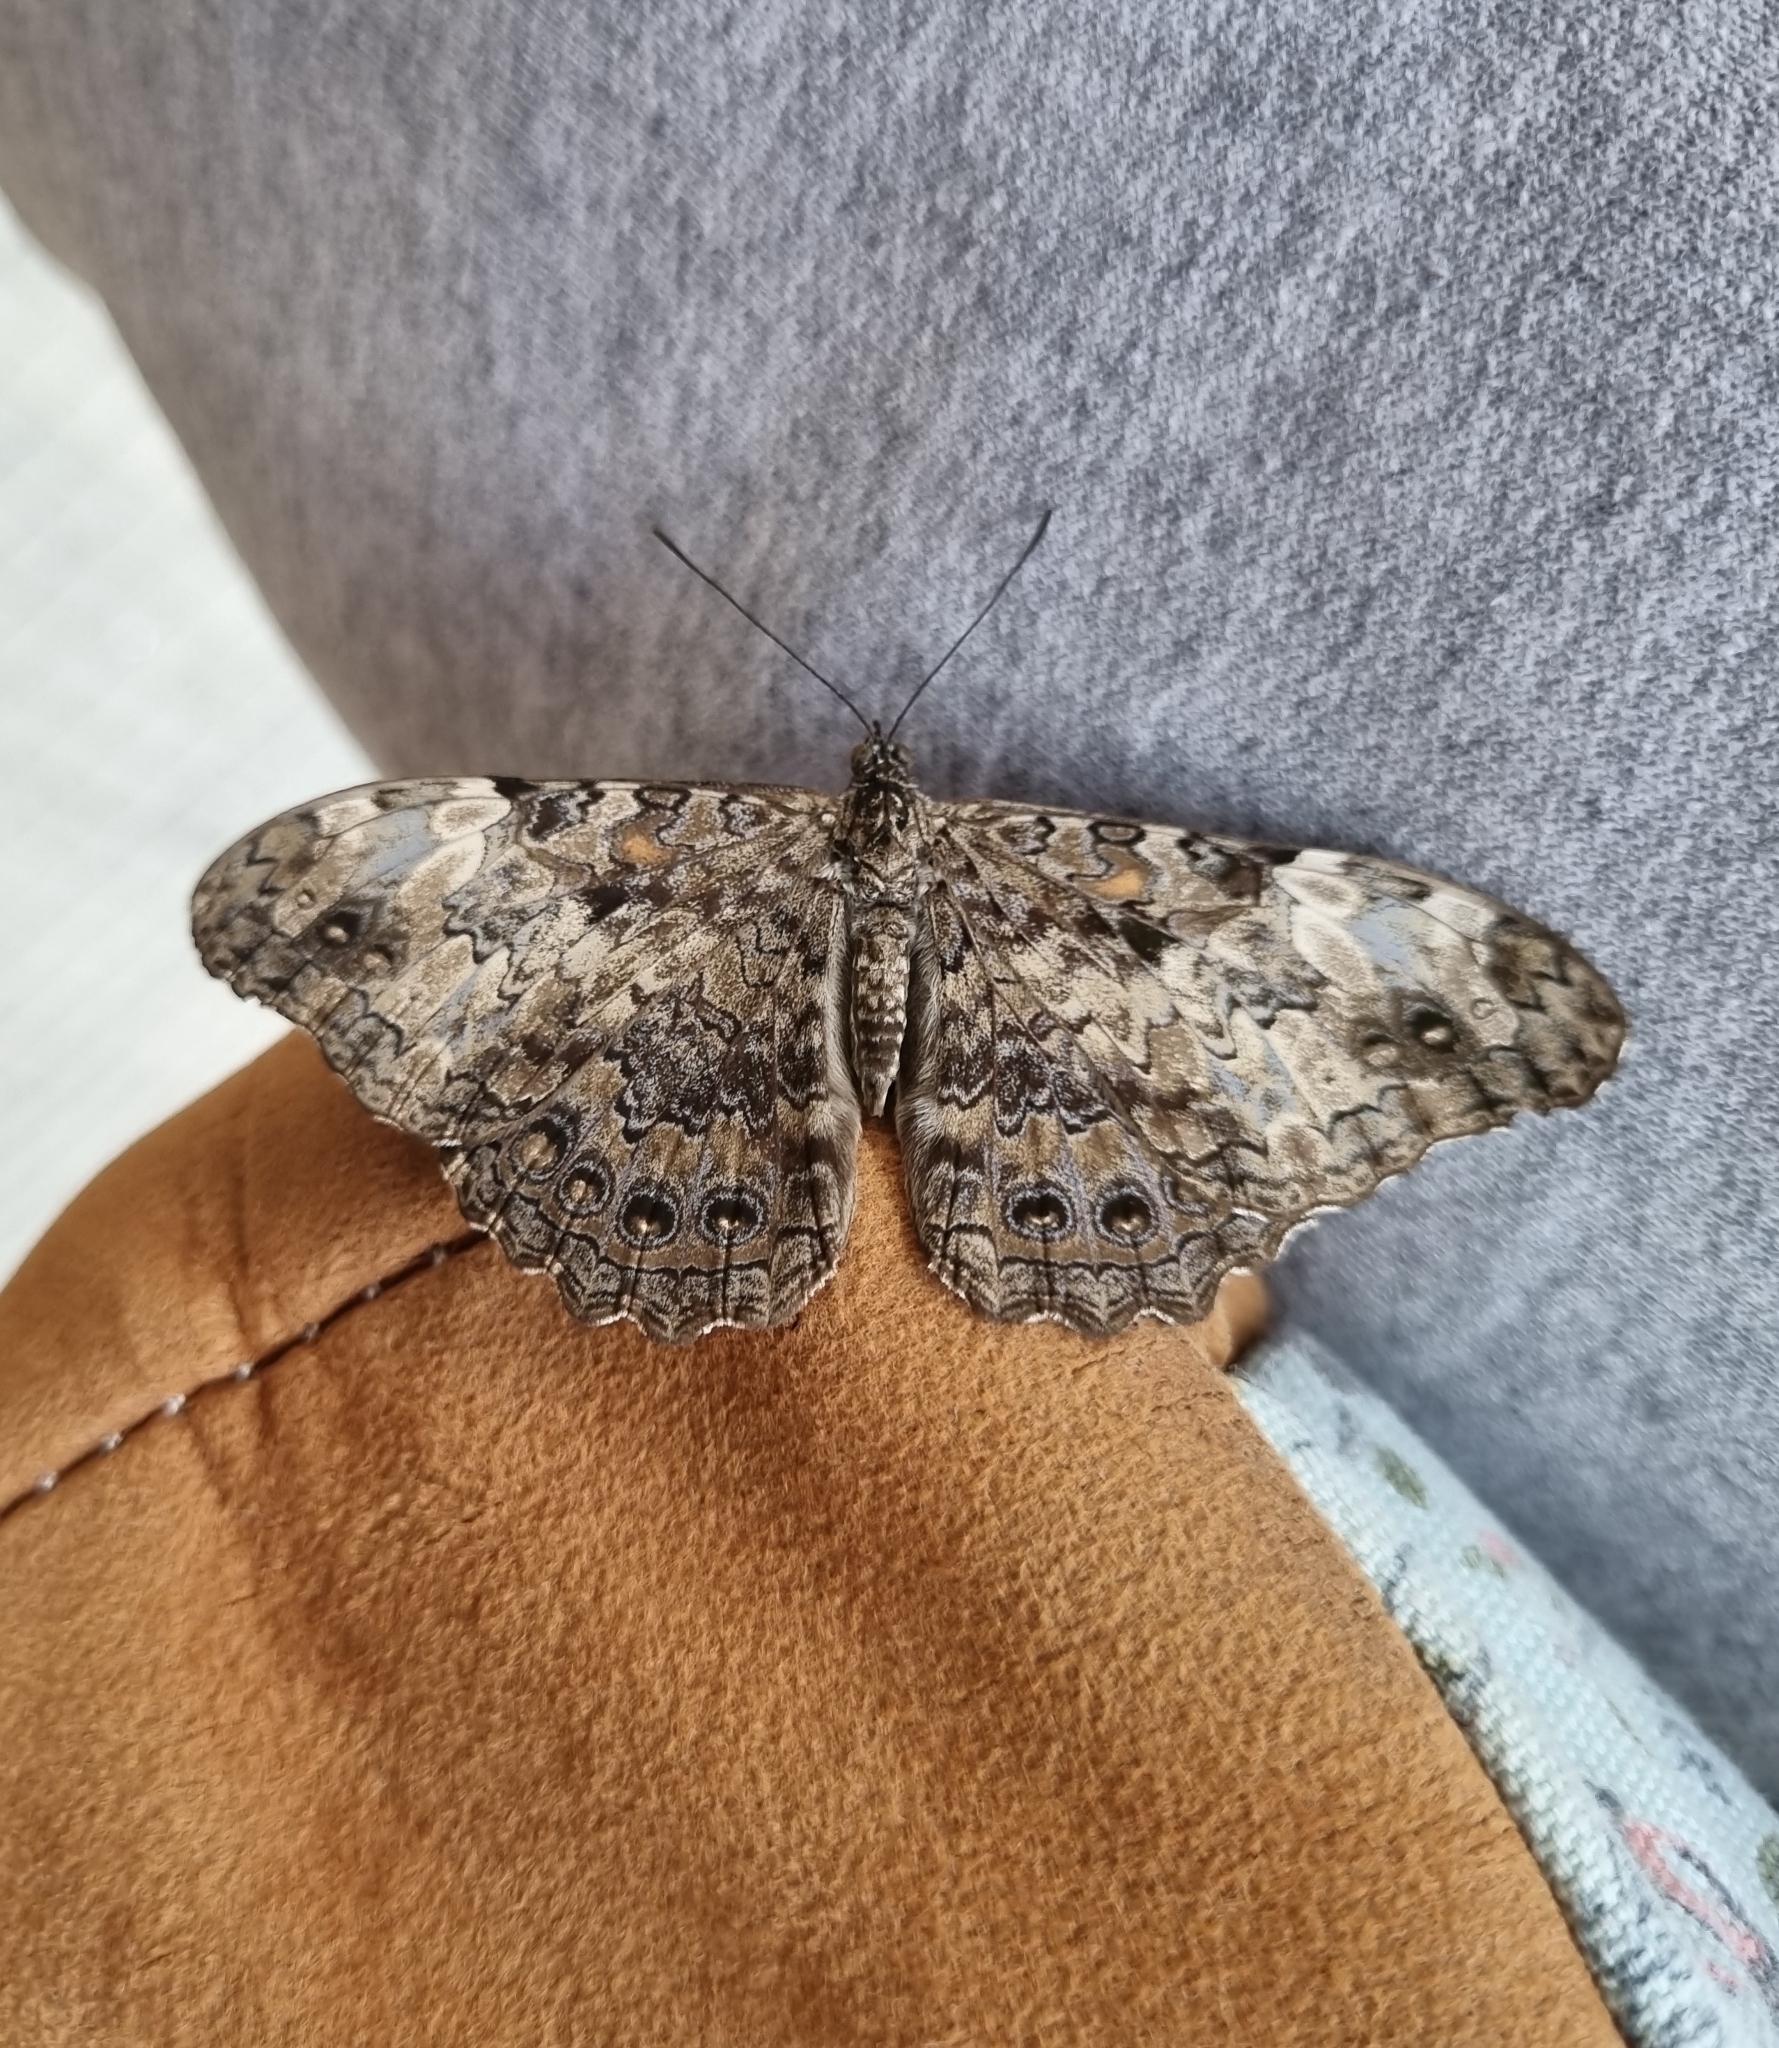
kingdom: Animalia
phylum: Arthropoda
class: Insecta
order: Lepidoptera
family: Nymphalidae
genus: Hamadryas
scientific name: Hamadryas epinome
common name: Epinome cracker
